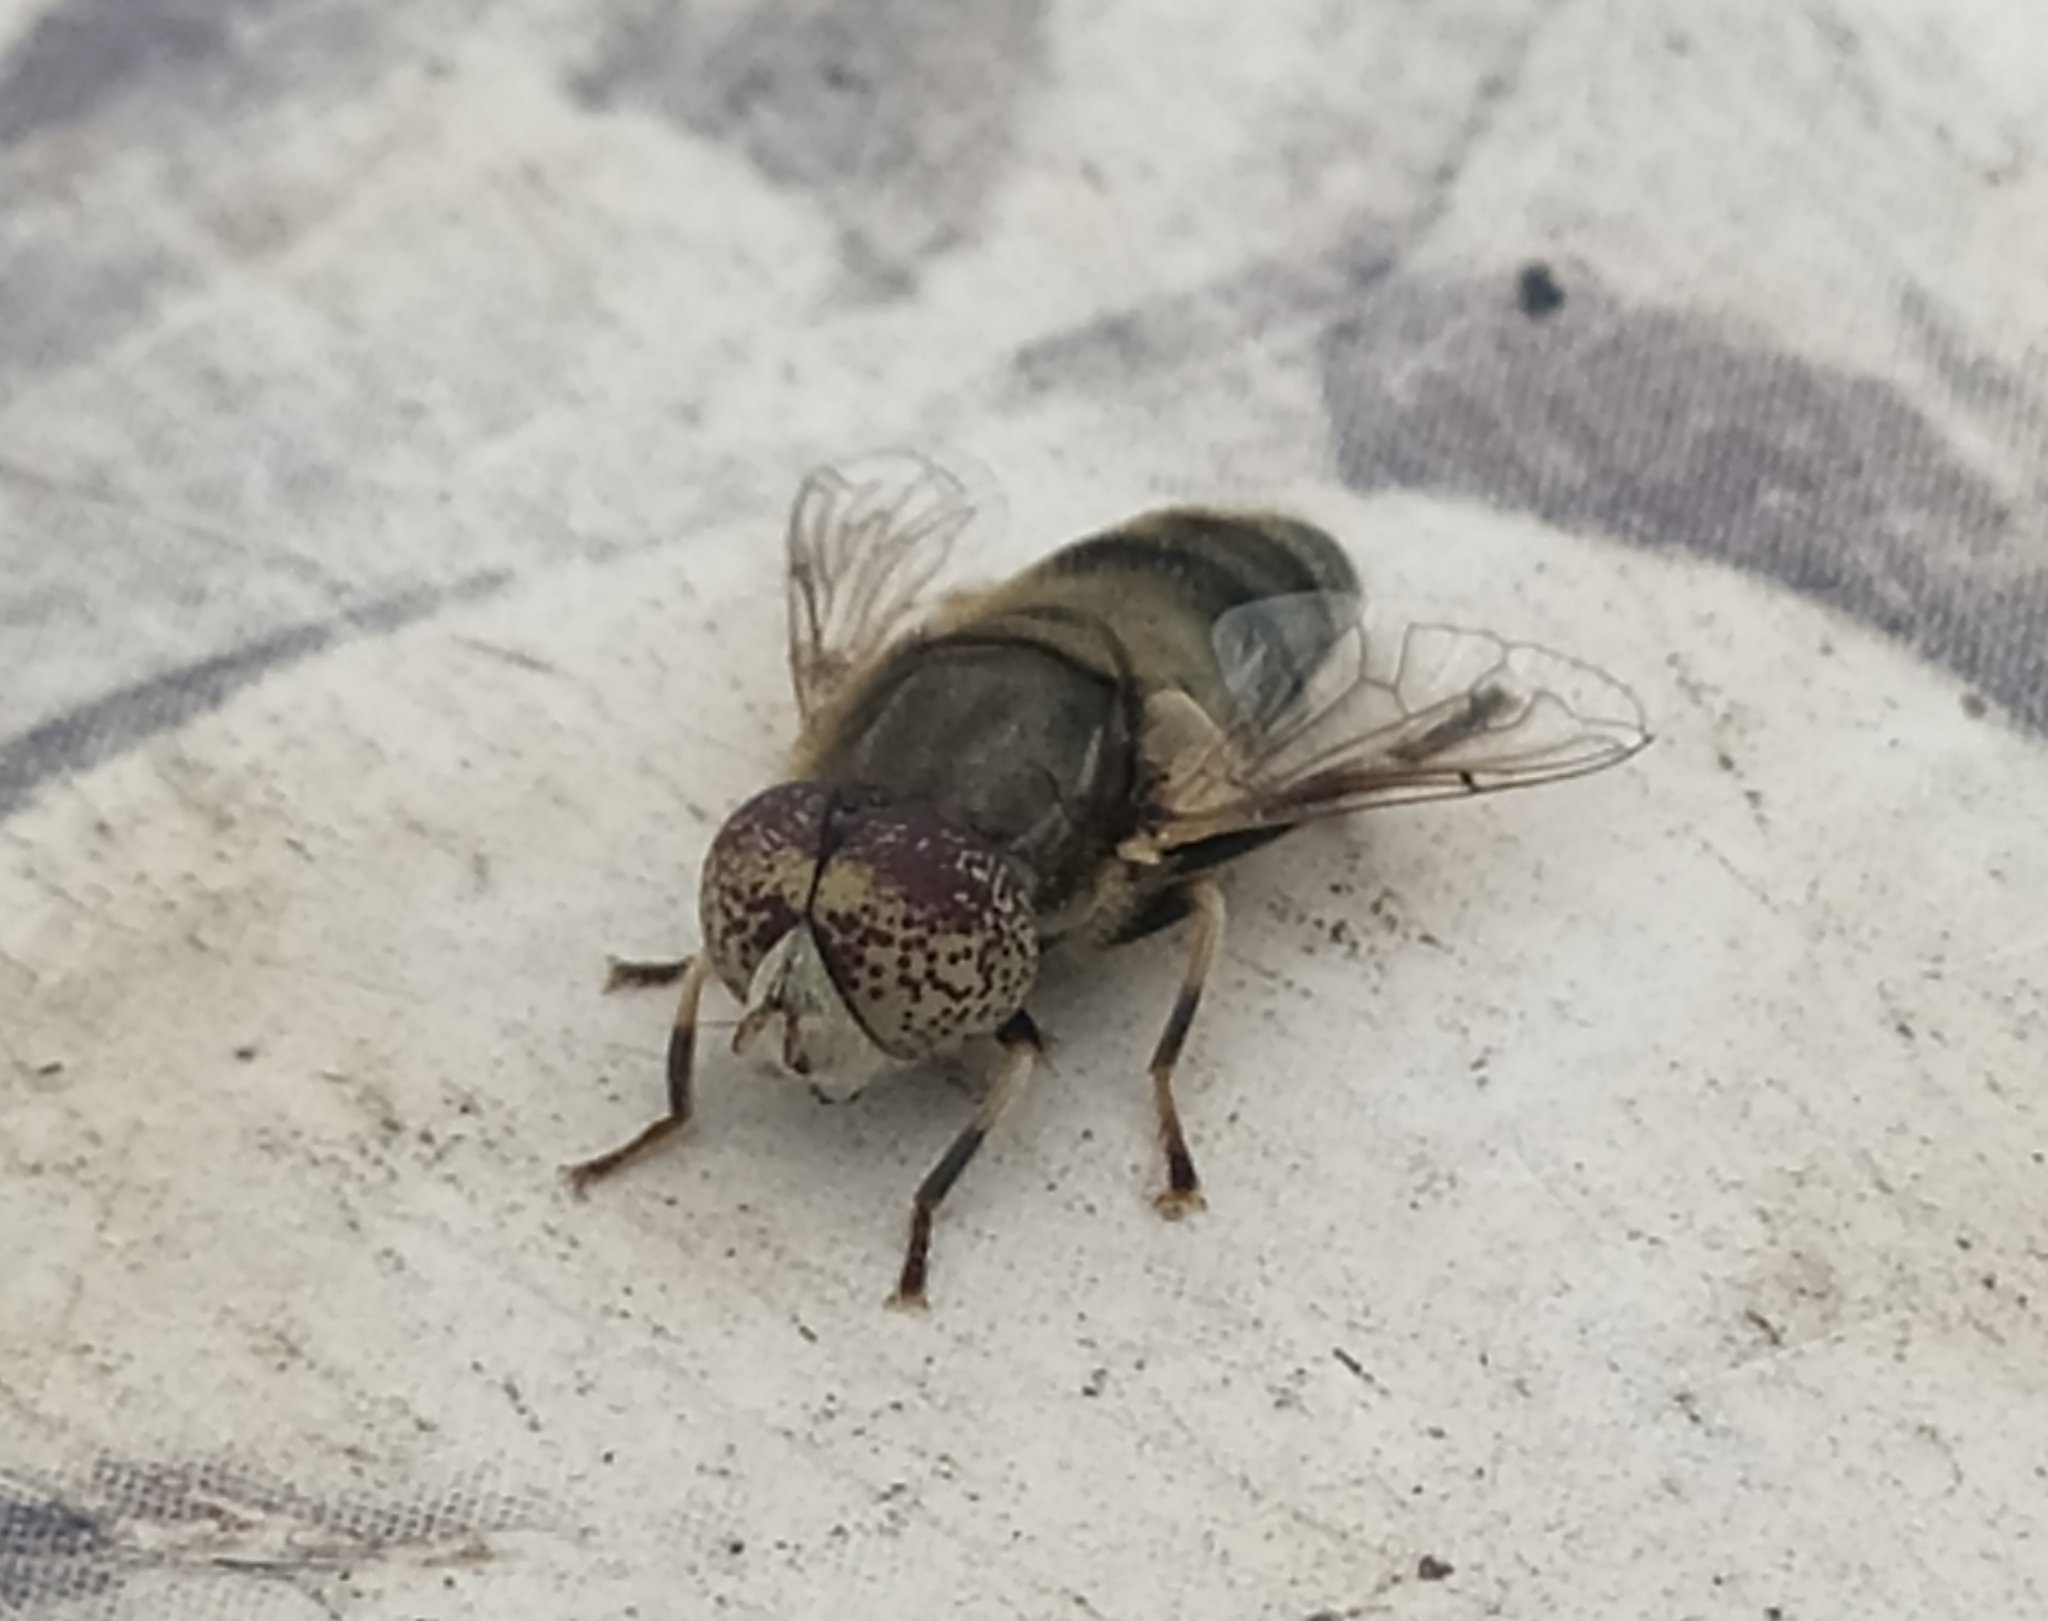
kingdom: Animalia
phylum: Arthropoda
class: Insecta
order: Diptera
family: Syrphidae
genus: Eristalinus
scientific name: Eristalinus aeneus
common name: Syrphid fly
